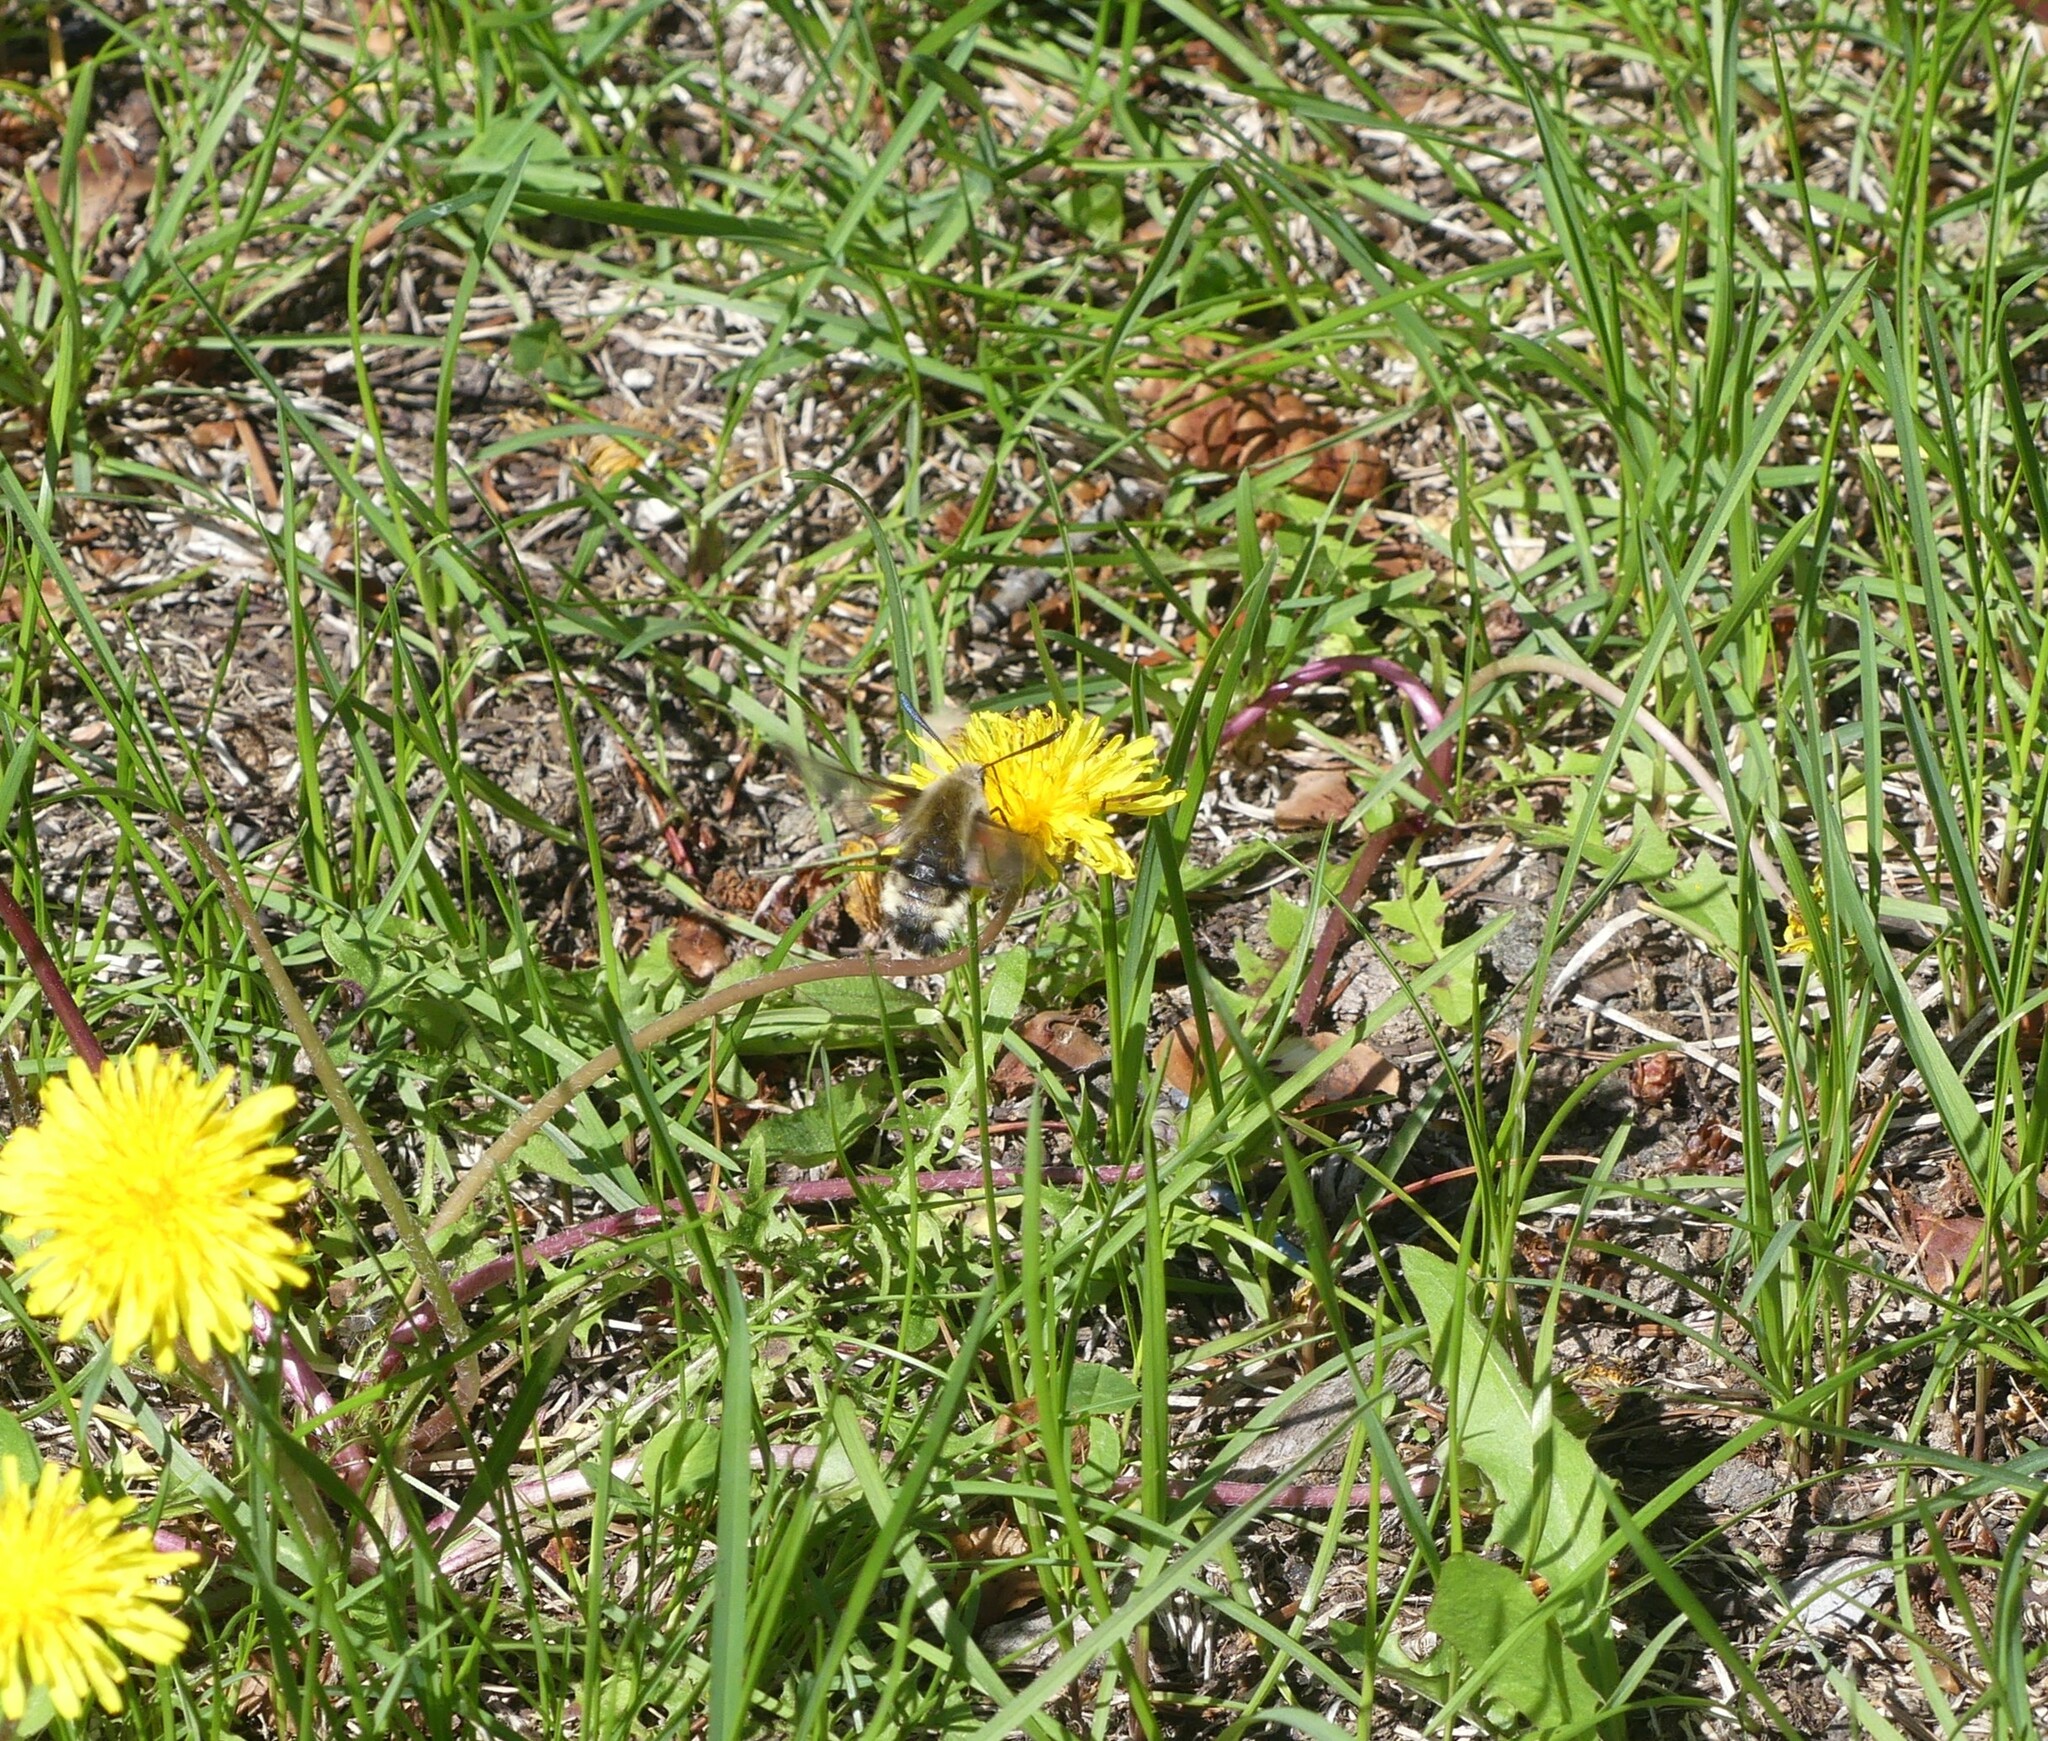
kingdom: Animalia
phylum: Arthropoda
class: Insecta
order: Lepidoptera
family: Sphingidae
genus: Hemaris
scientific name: Hemaris thetis
